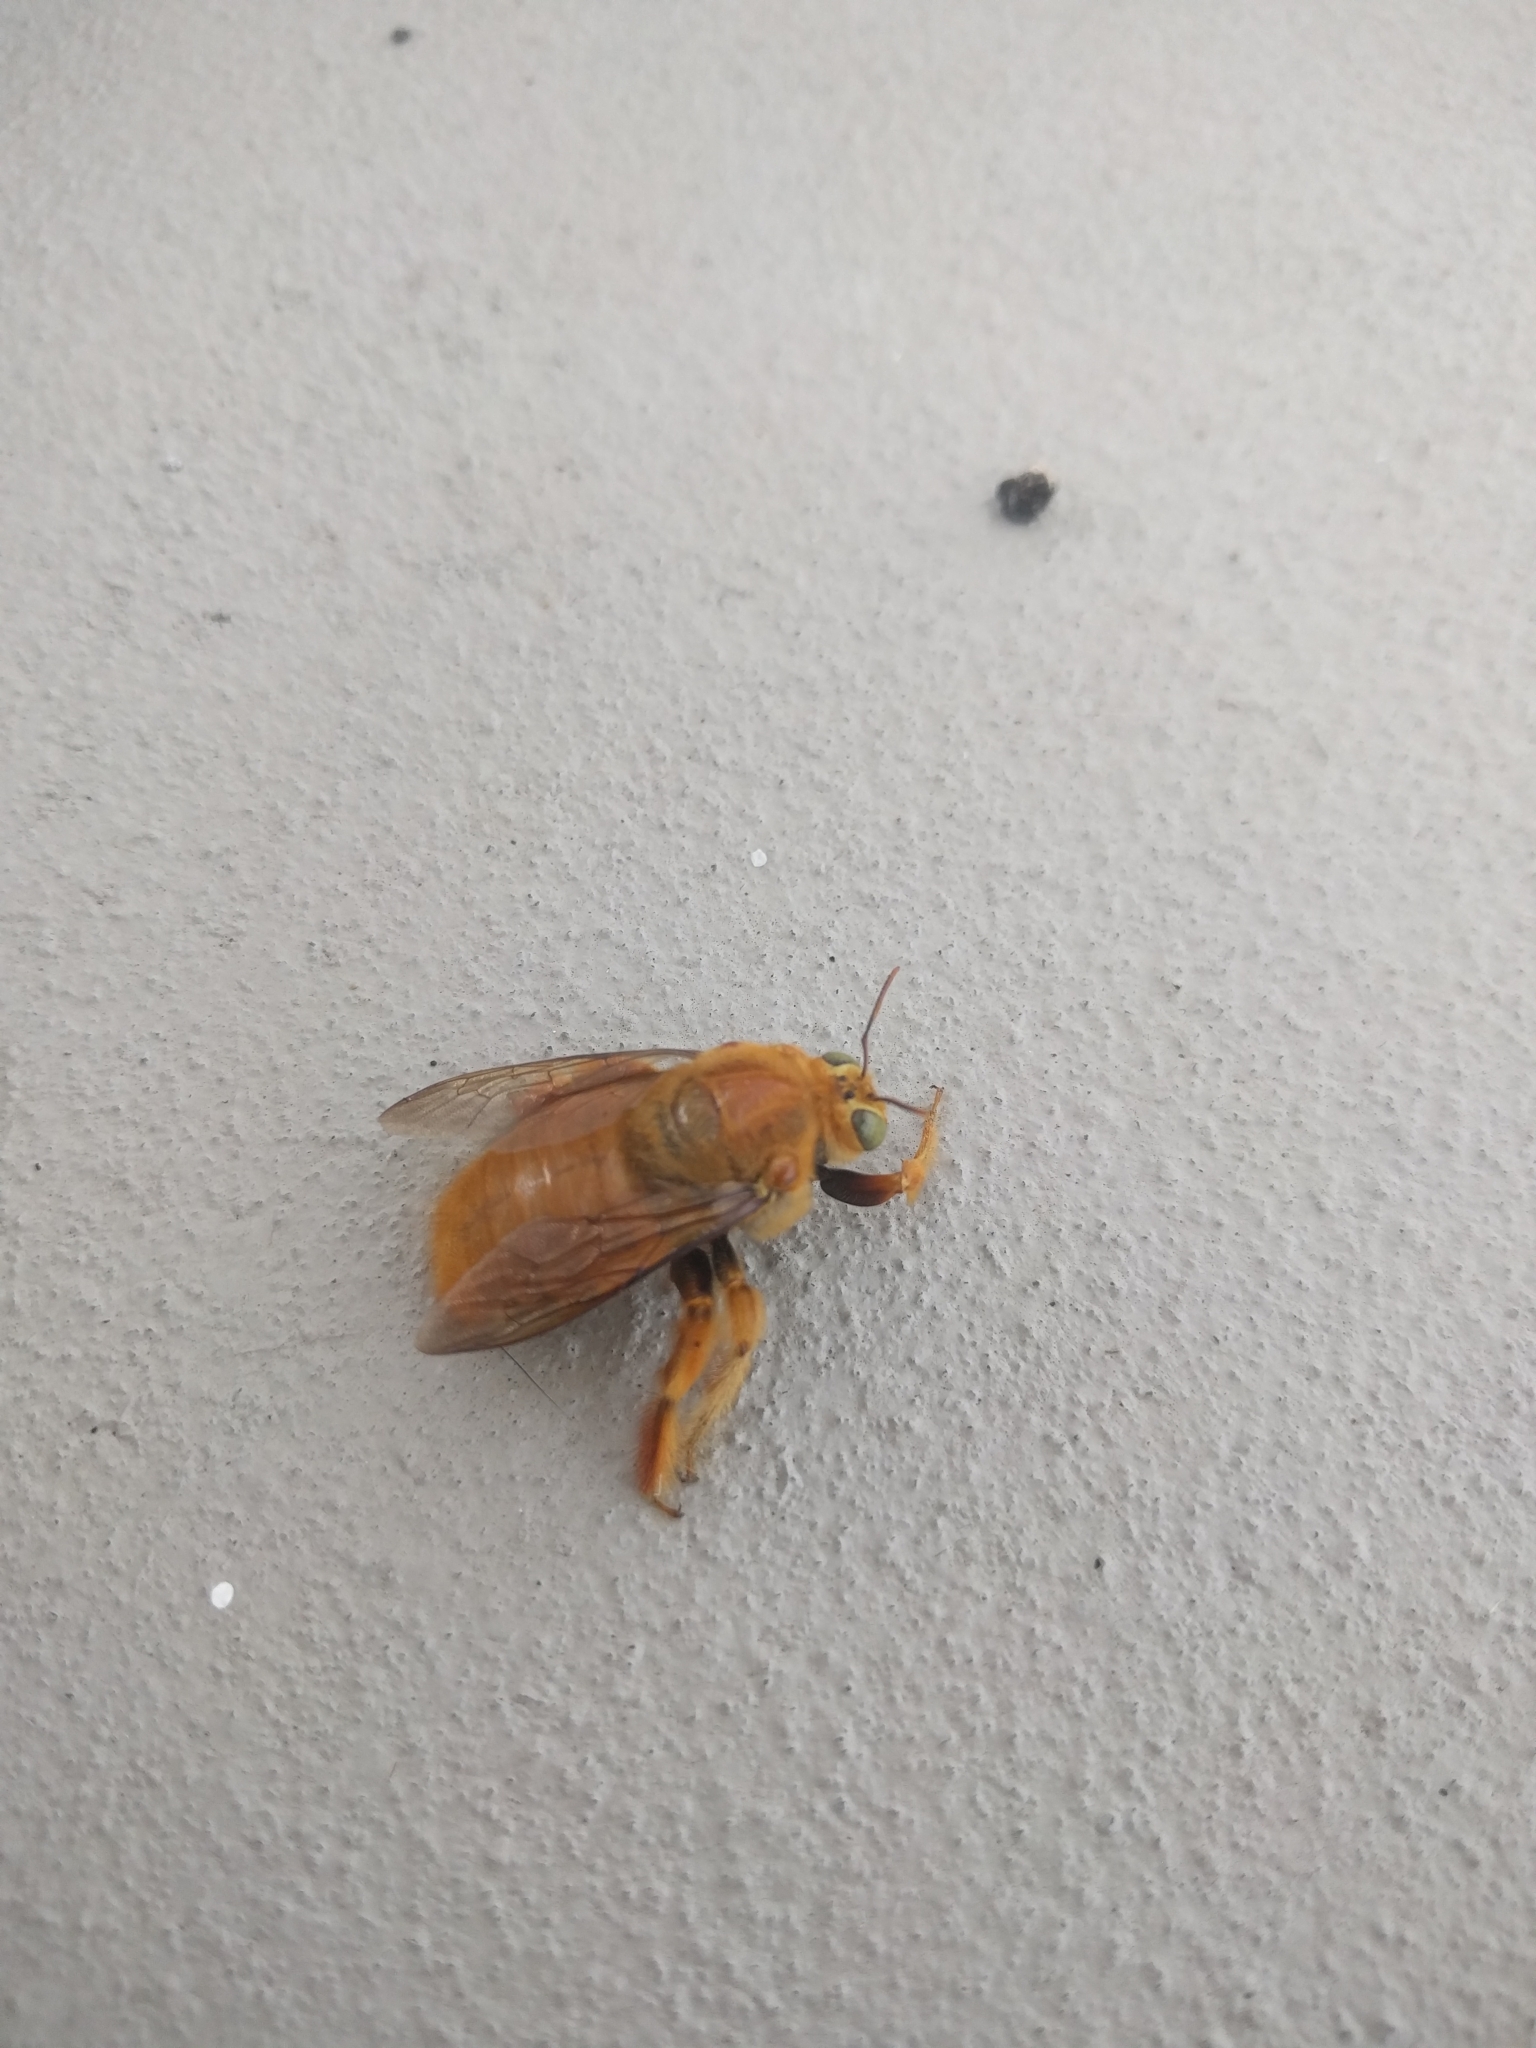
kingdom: Animalia
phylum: Arthropoda
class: Insecta
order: Hymenoptera
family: Apidae
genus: Xylocopa
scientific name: Xylocopa sonorina
